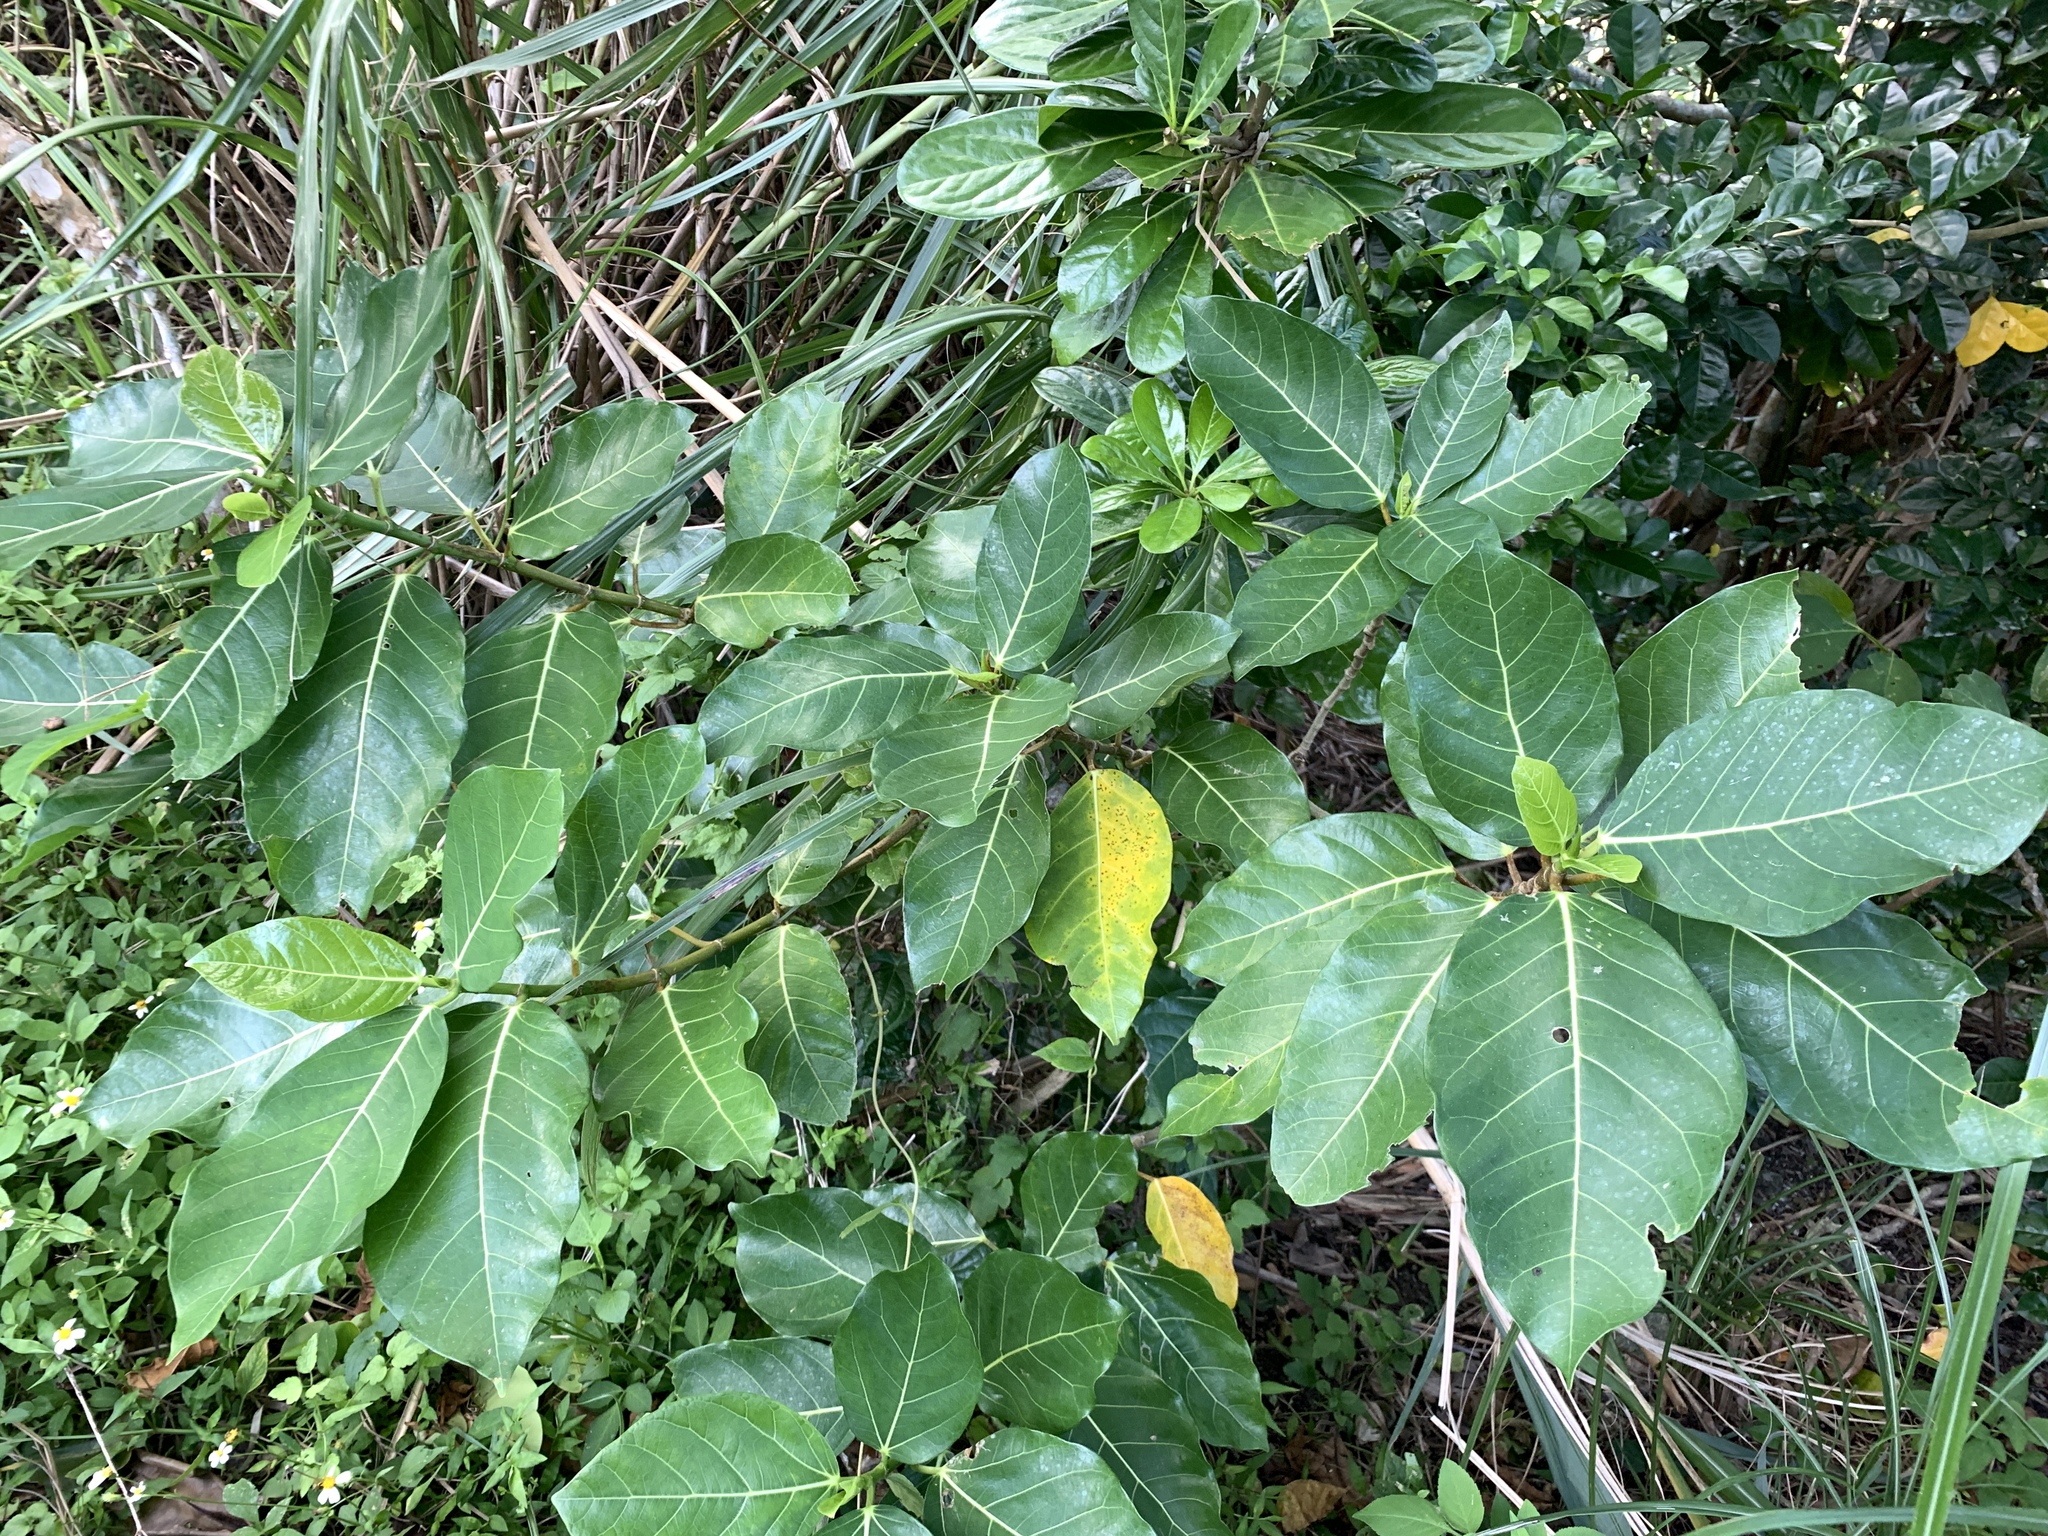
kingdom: Plantae
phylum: Tracheophyta
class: Magnoliopsida
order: Rosales
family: Moraceae
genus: Ficus
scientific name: Ficus septica
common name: Septic fig
